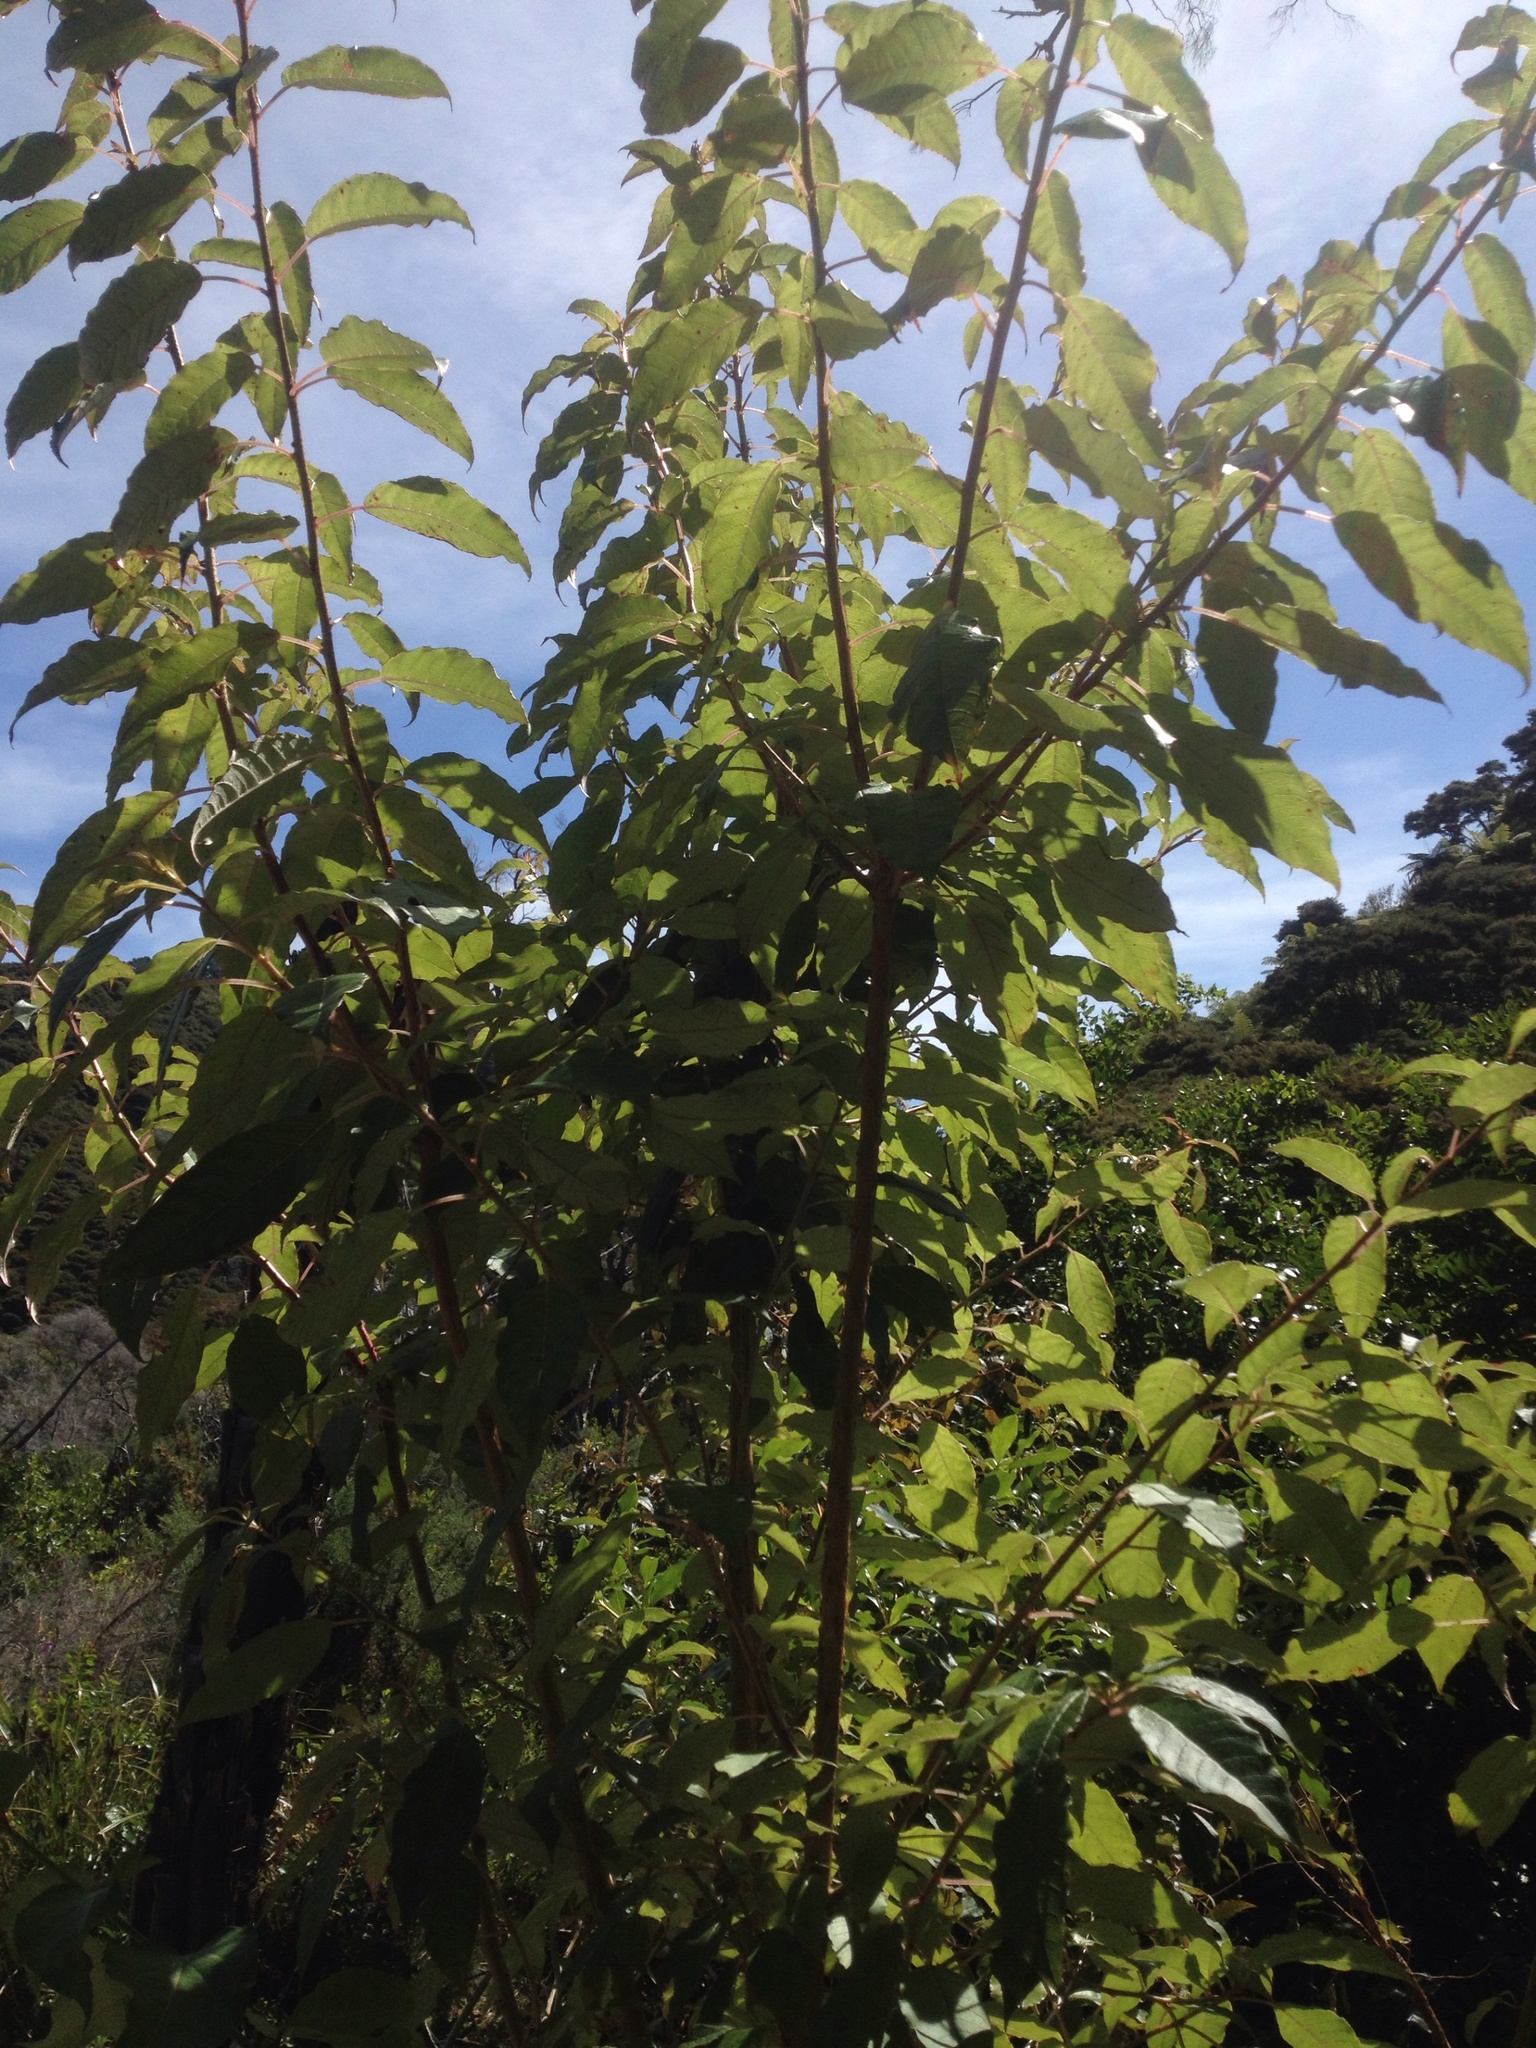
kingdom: Plantae
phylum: Tracheophyta
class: Magnoliopsida
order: Myrtales
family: Onagraceae
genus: Fuchsia
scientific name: Fuchsia excorticata
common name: Tree fuchsia
